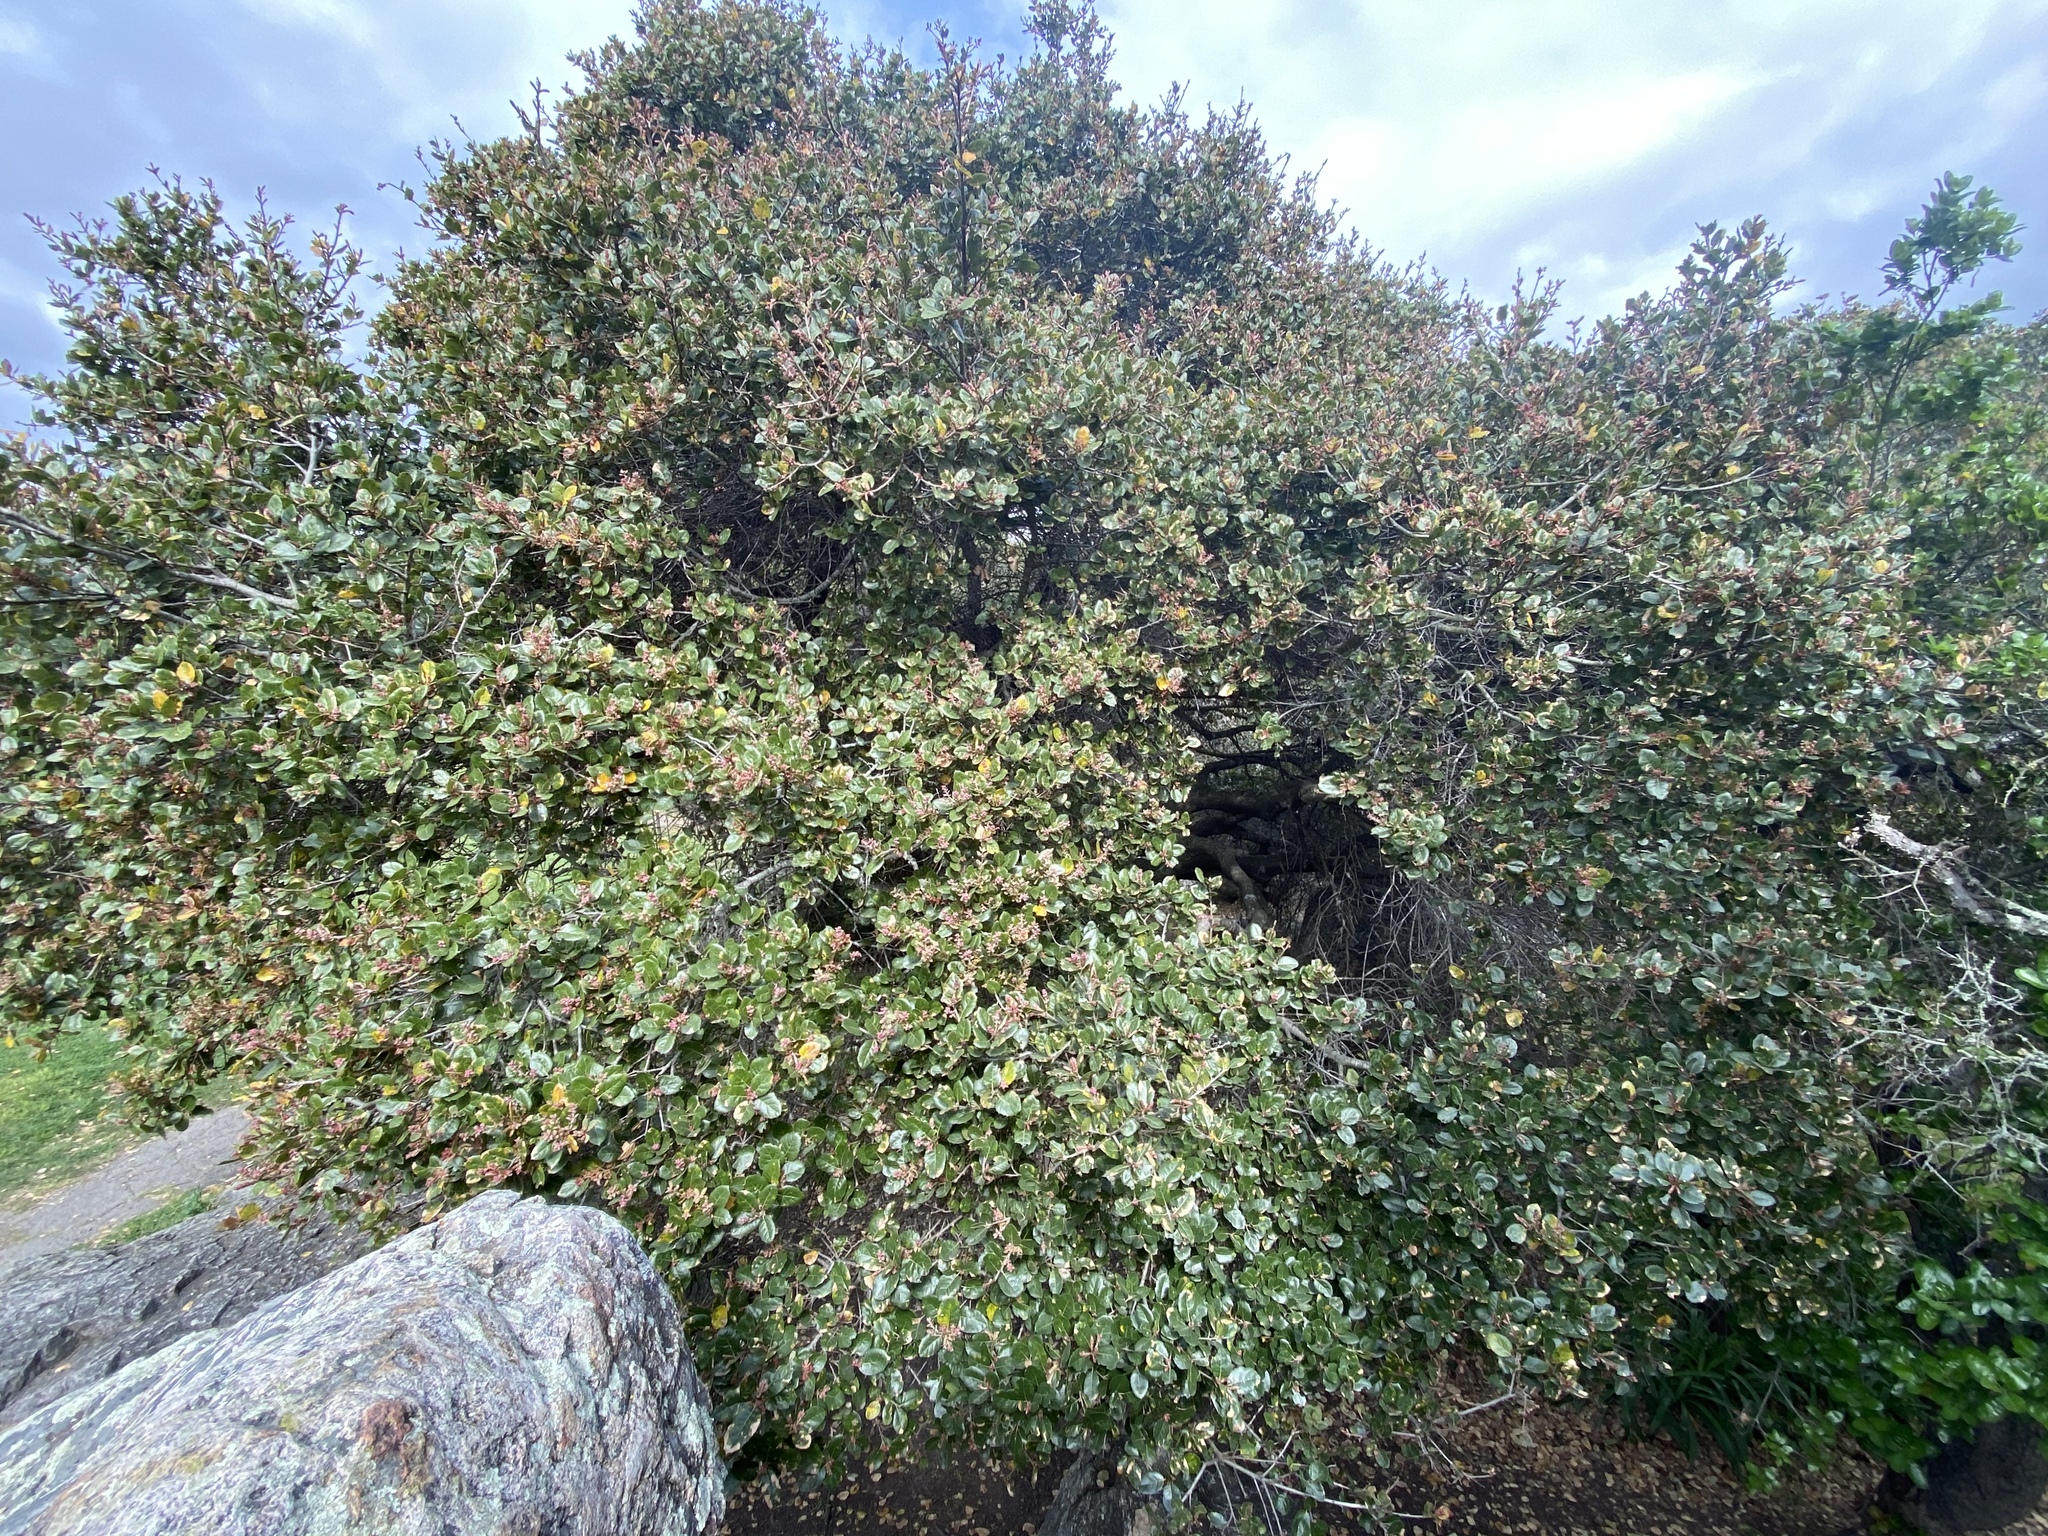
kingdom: Plantae
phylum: Tracheophyta
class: Magnoliopsida
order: Fagales
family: Fagaceae
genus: Quercus
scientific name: Quercus agrifolia
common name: California live oak
